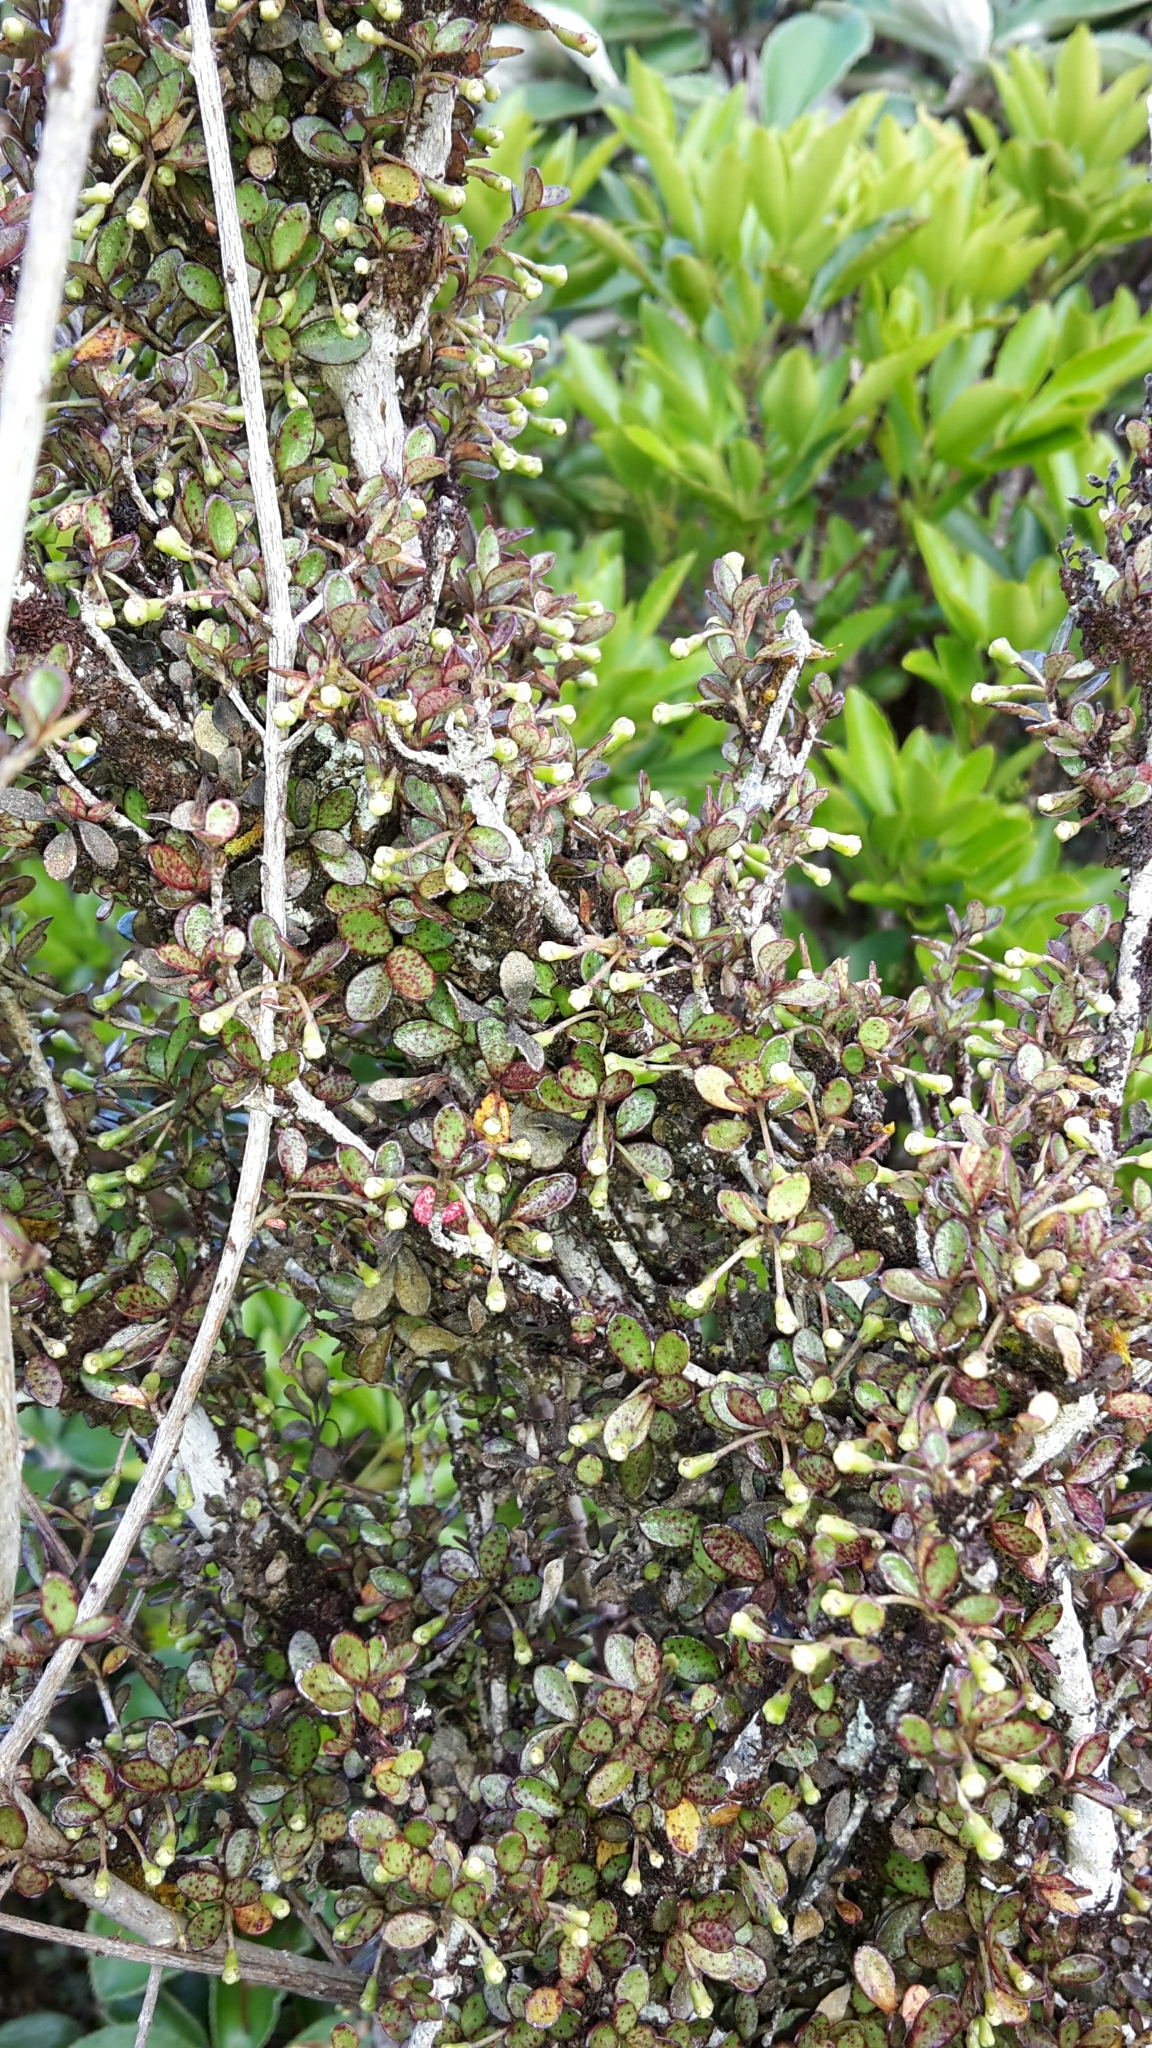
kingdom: Plantae
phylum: Tracheophyta
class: Magnoliopsida
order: Myrtales
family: Myrtaceae
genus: Neomyrtus
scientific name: Neomyrtus pedunculata
